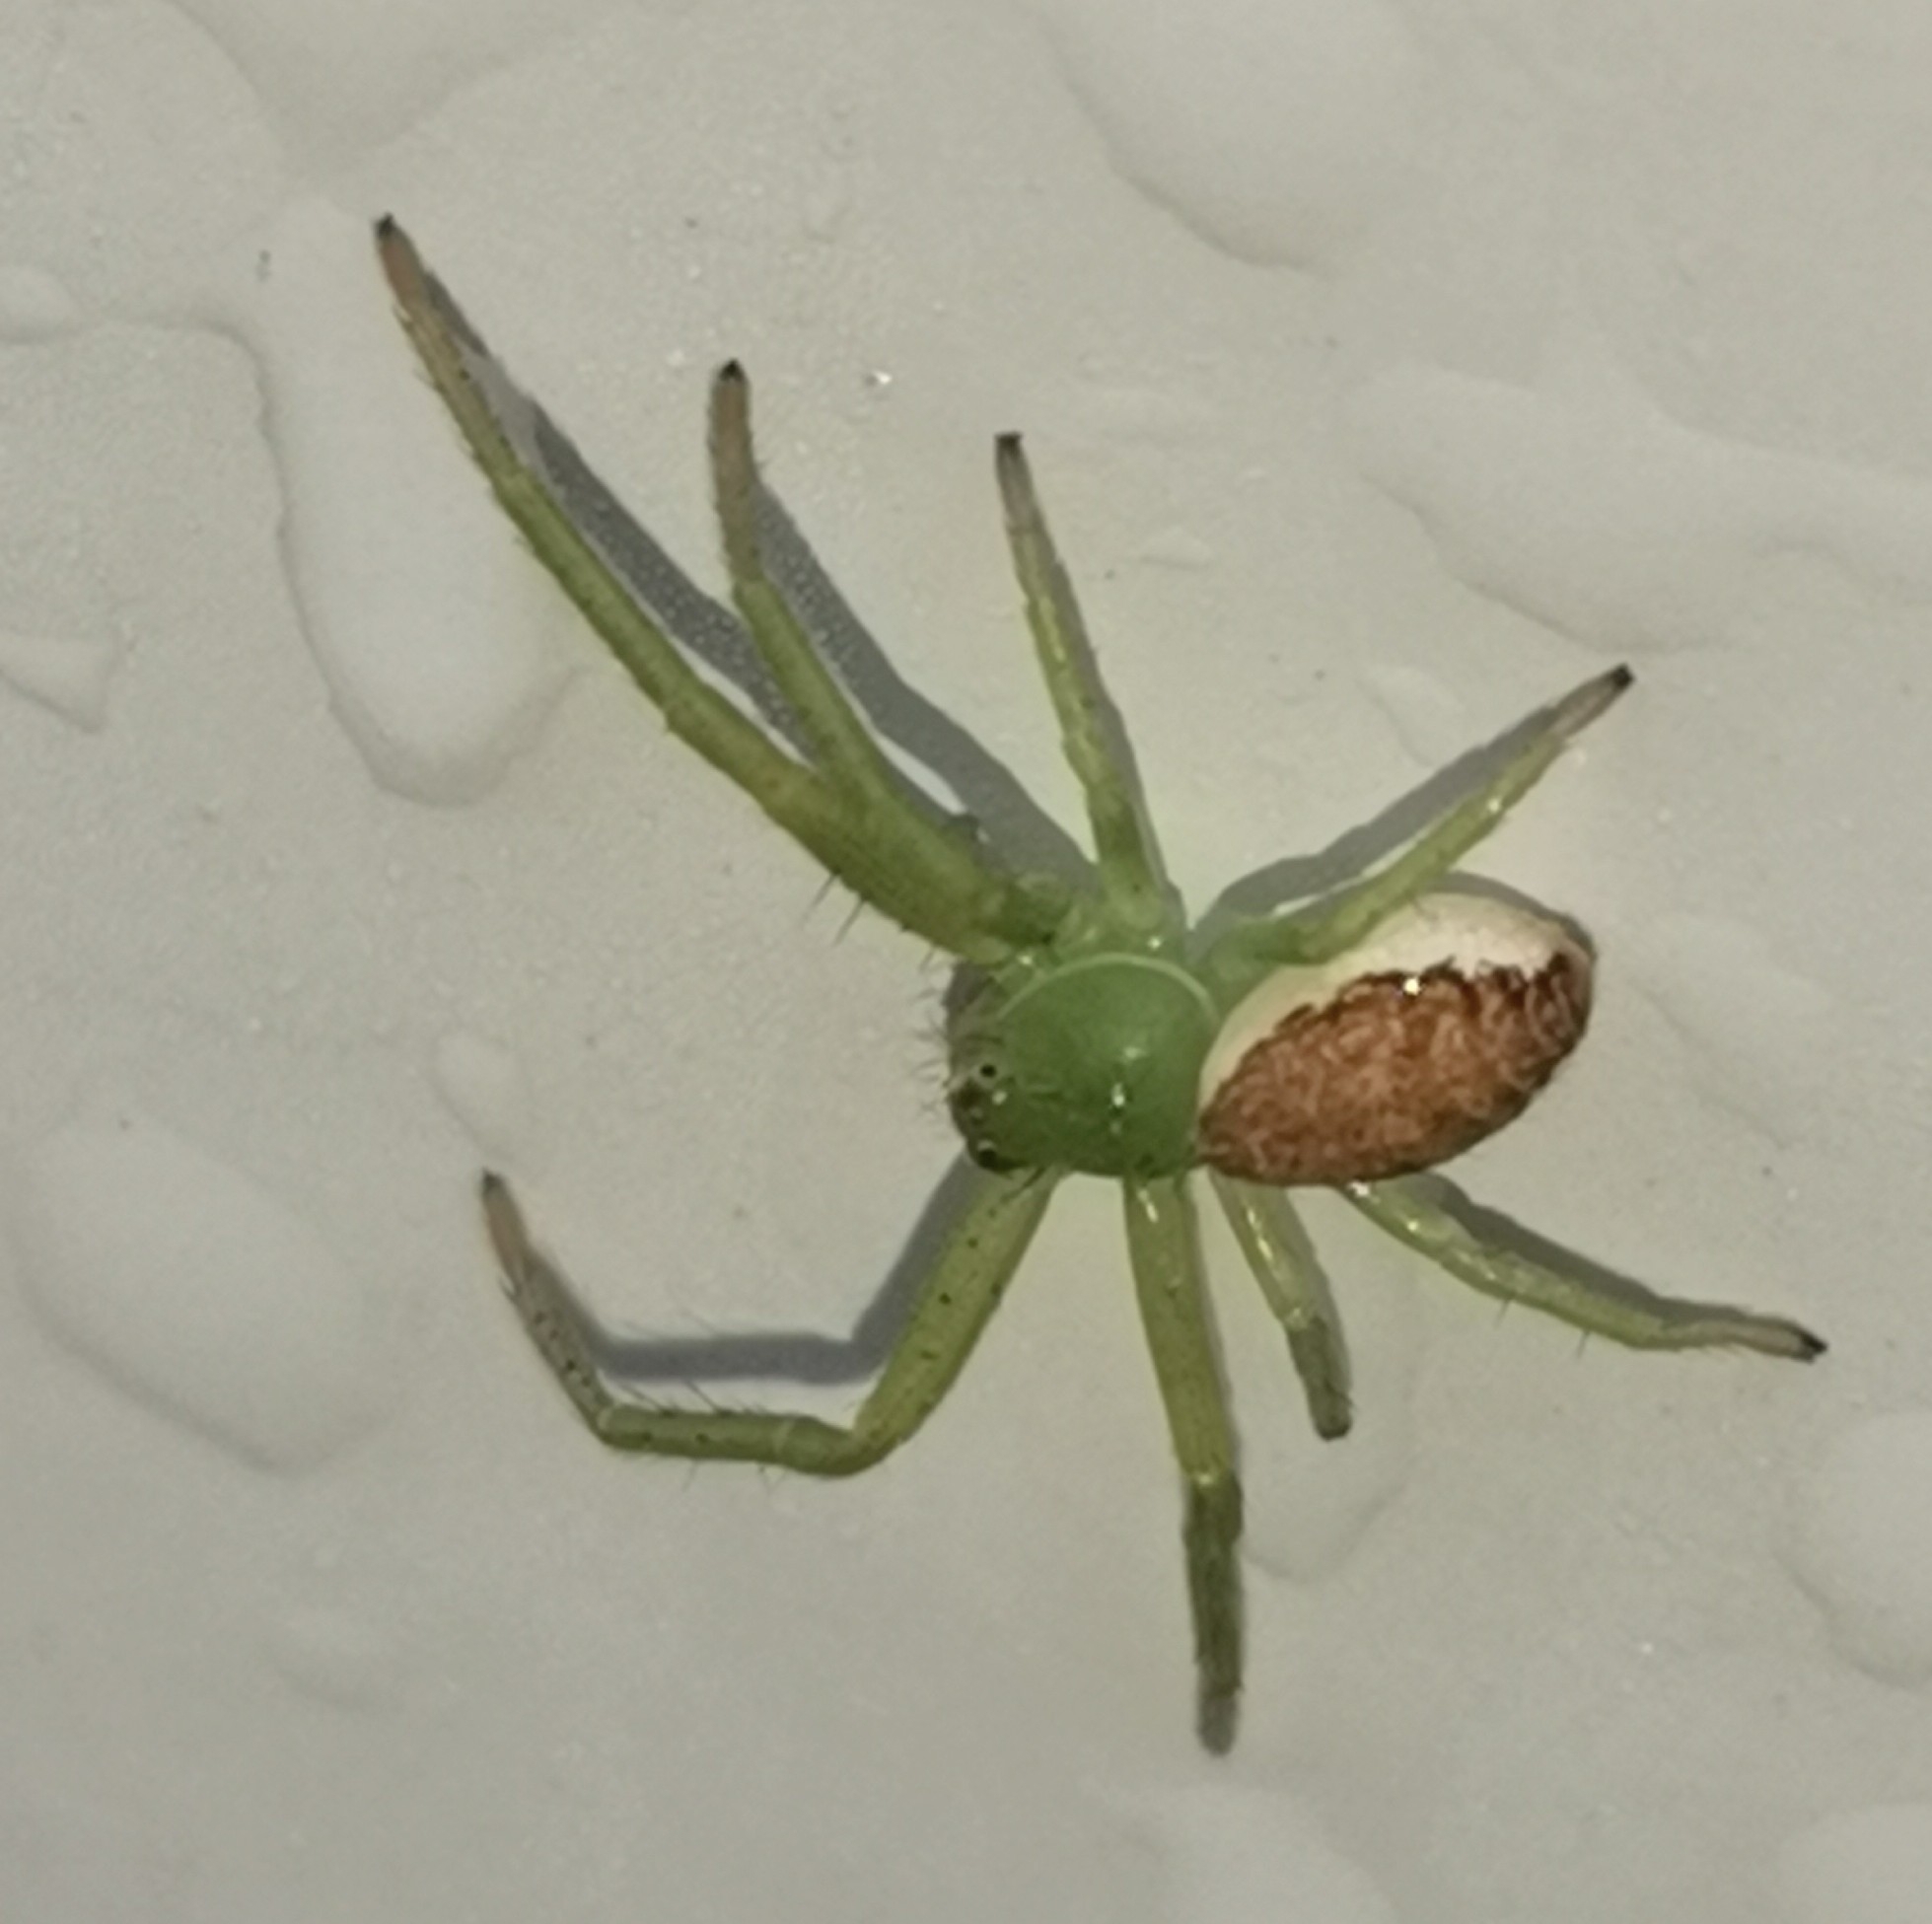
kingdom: Animalia
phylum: Arthropoda
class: Arachnida
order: Araneae
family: Thomisidae
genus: Diaea
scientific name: Diaea dorsata
